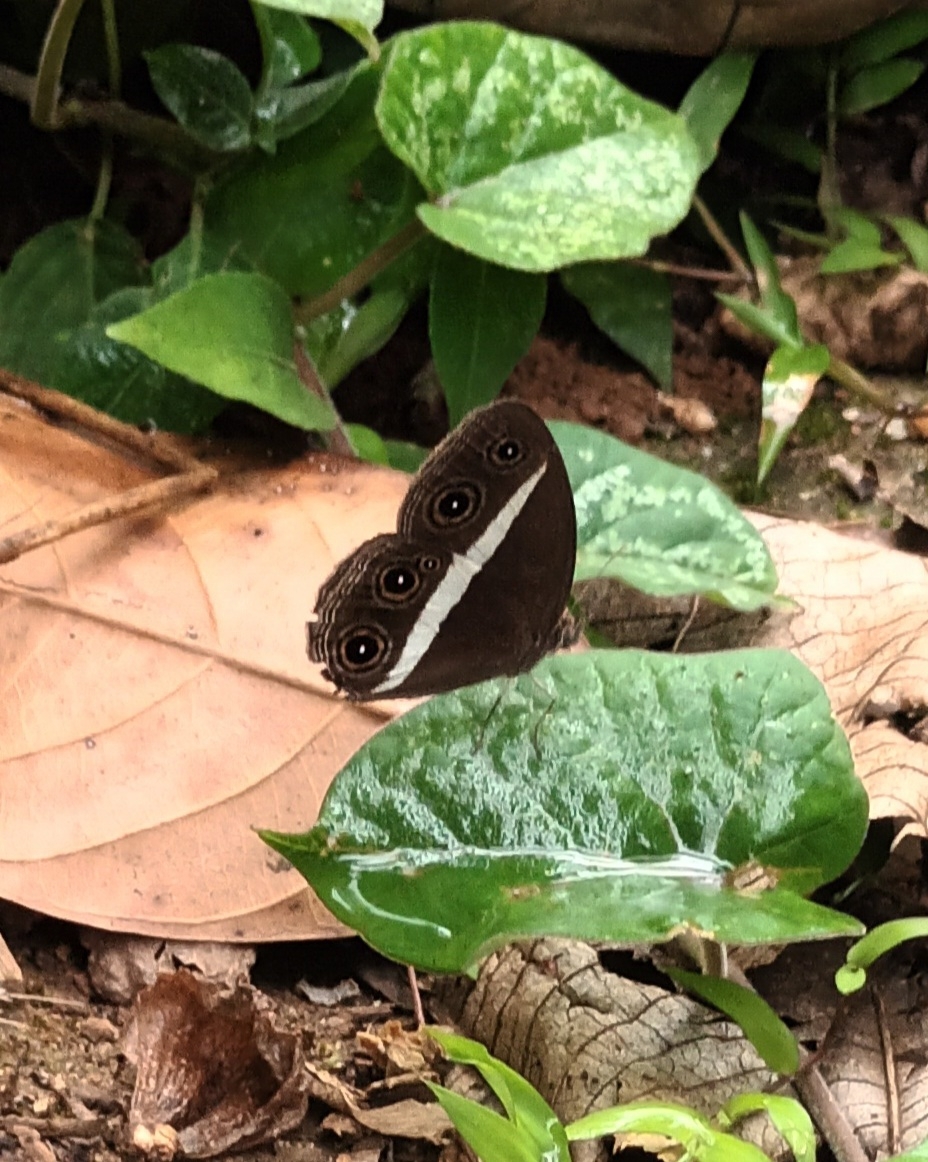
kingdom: Animalia
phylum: Arthropoda
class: Insecta
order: Lepidoptera
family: Nymphalidae
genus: Orsotriaena
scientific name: Orsotriaena medus
